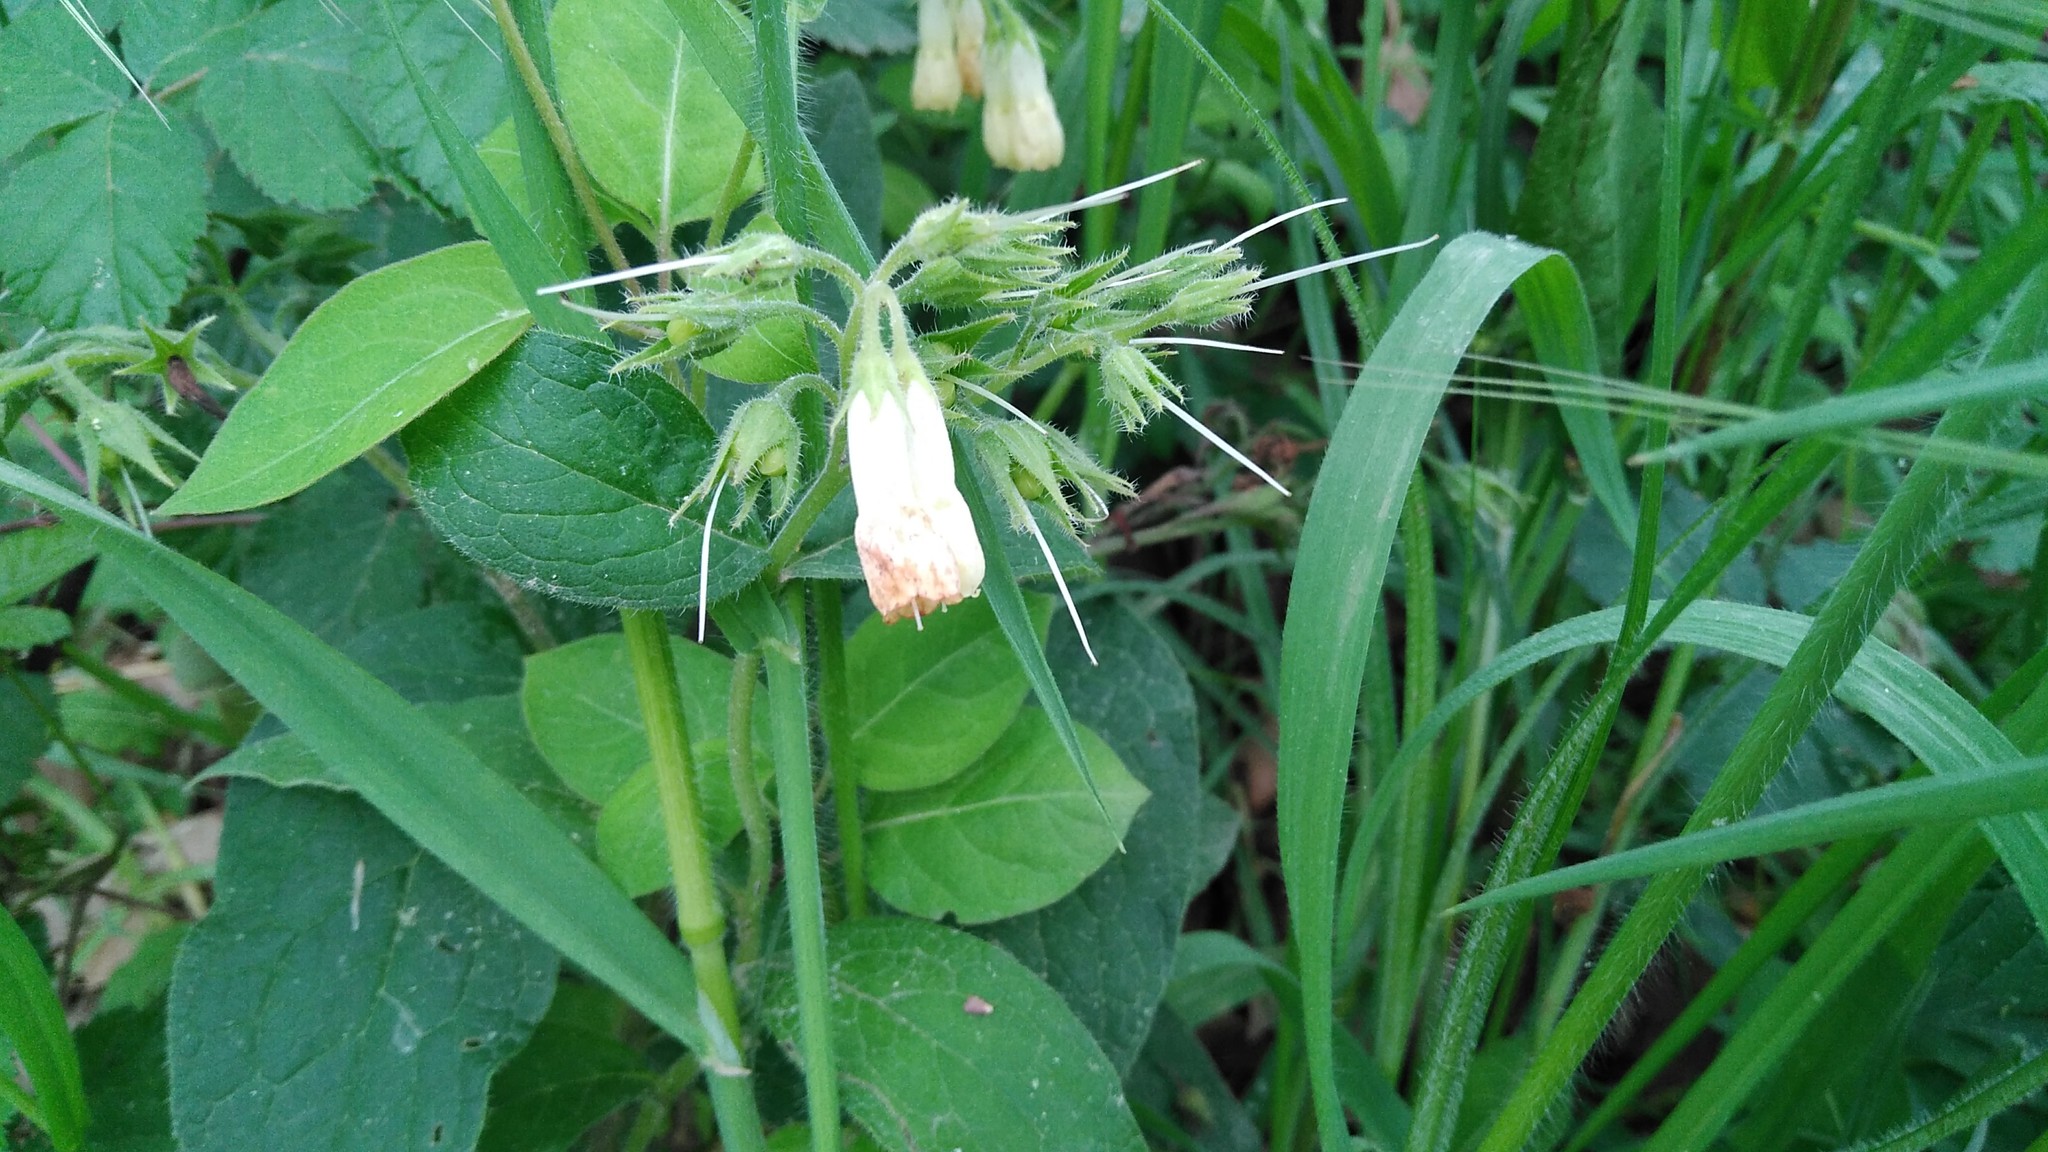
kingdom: Plantae
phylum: Tracheophyta
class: Magnoliopsida
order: Boraginales
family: Boraginaceae
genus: Symphytum
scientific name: Symphytum tuberosum
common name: Tuberous comfrey
